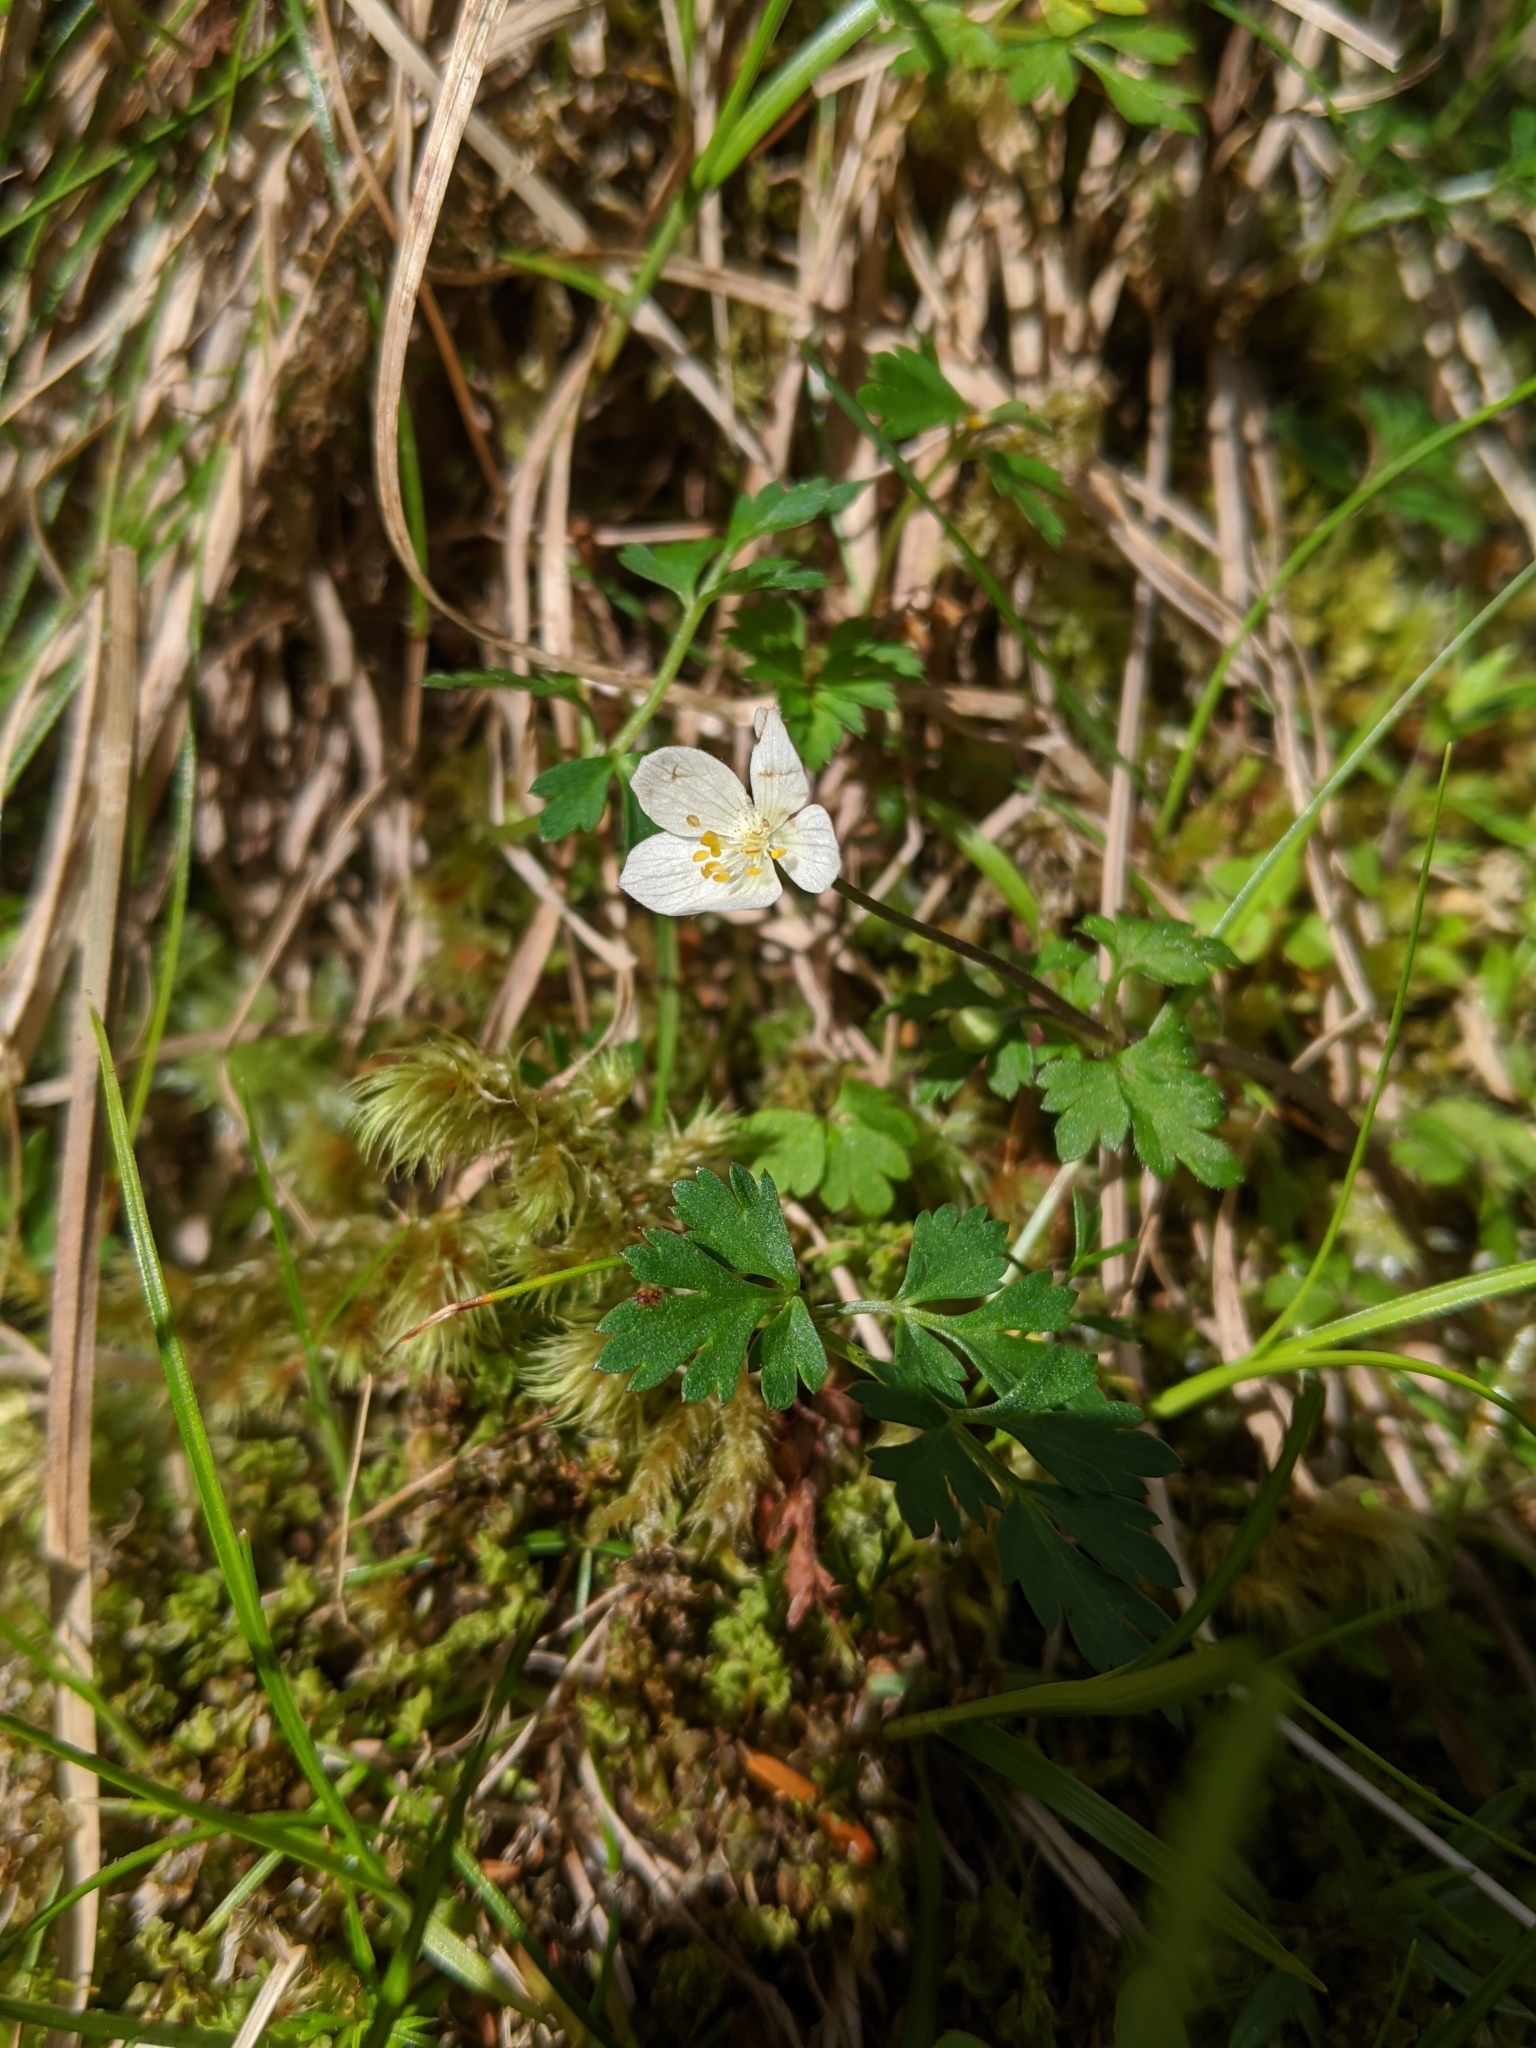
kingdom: Plantae
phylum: Tracheophyta
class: Magnoliopsida
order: Ranunculales
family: Ranunculaceae
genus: Anemone
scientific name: Anemone stolonifera
